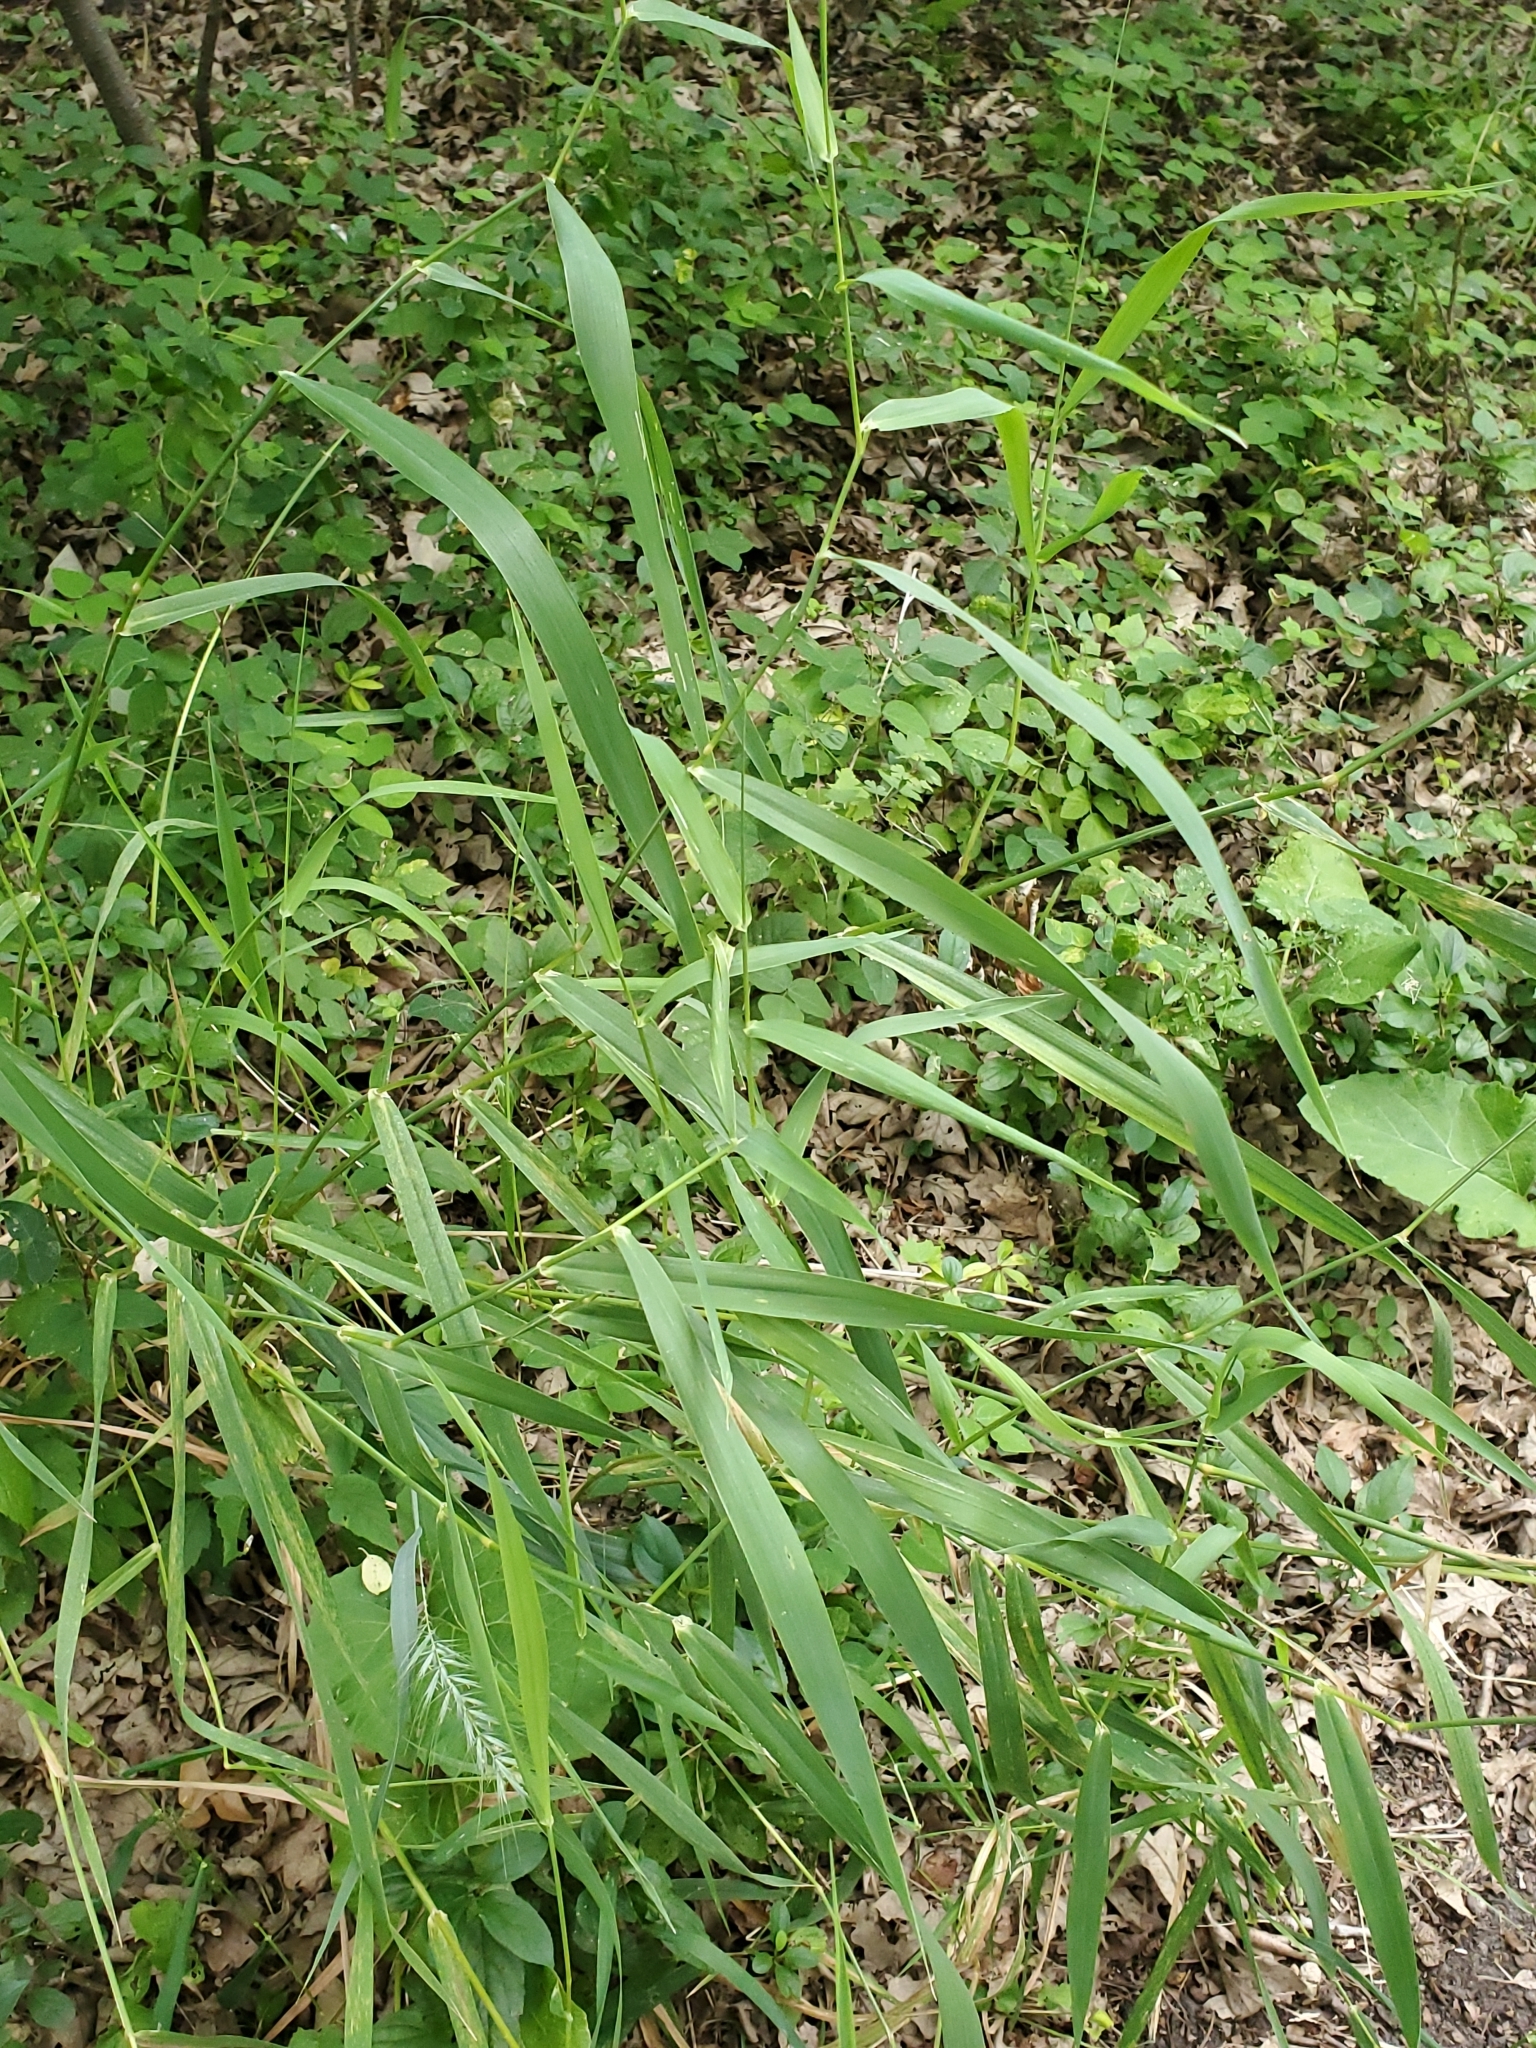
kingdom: Plantae
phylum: Tracheophyta
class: Liliopsida
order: Poales
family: Poaceae
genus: Phalaris
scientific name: Phalaris arundinacea
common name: Reed canary-grass
